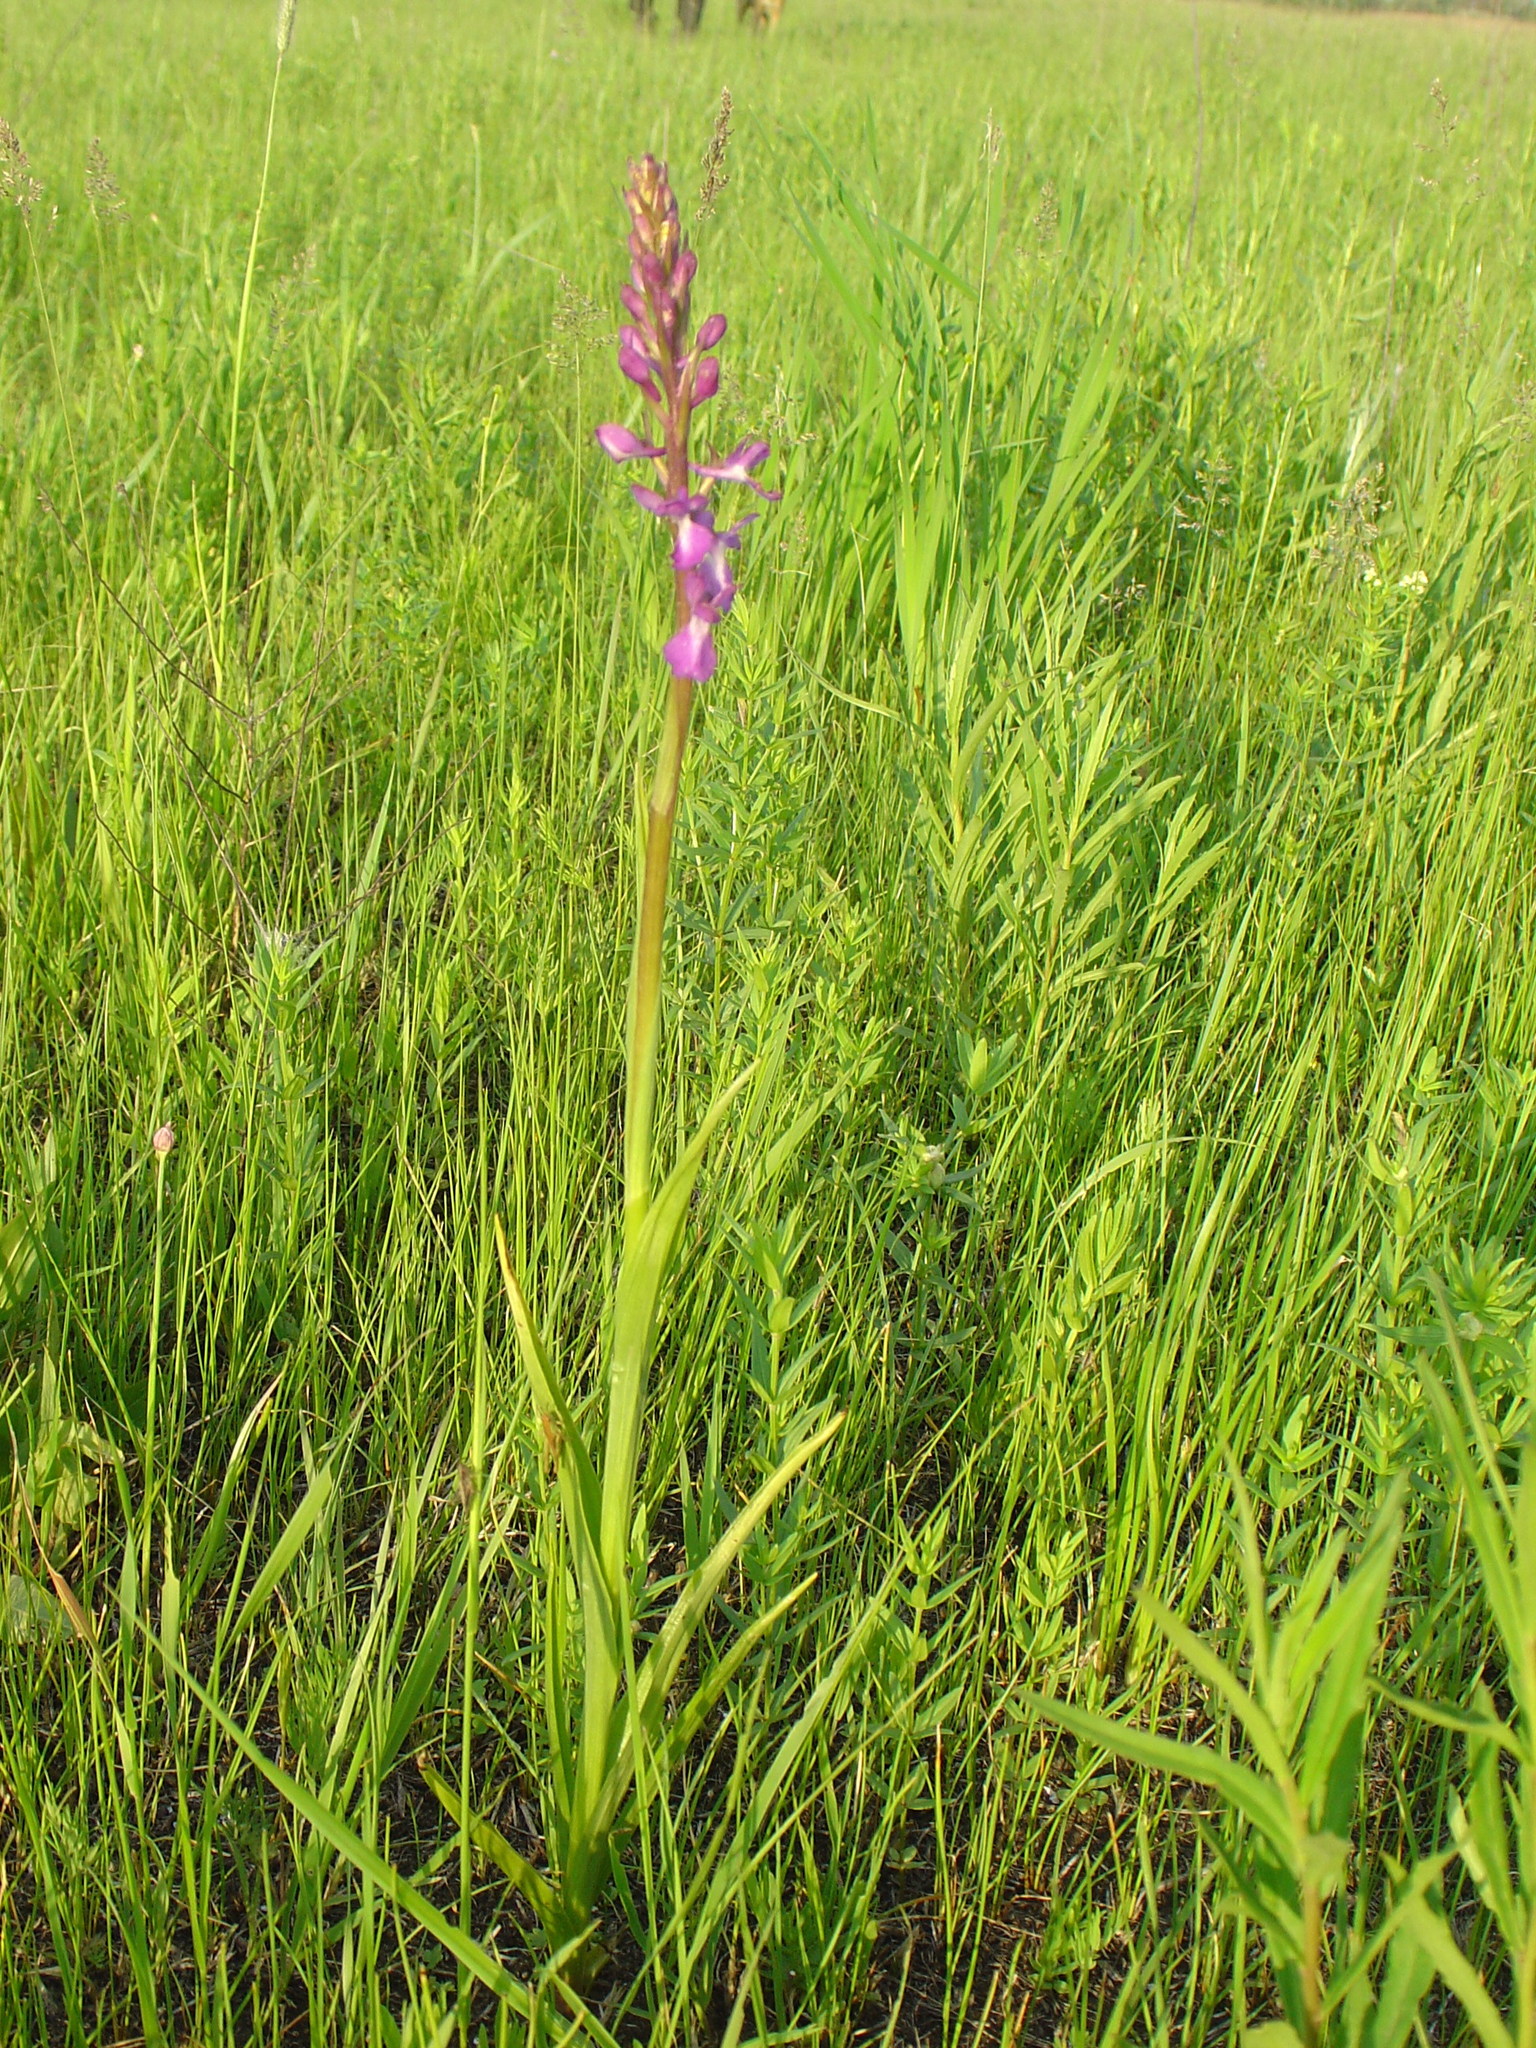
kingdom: Plantae
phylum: Tracheophyta
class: Liliopsida
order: Asparagales
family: Orchidaceae
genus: Anacamptis
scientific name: Anacamptis laxiflora
